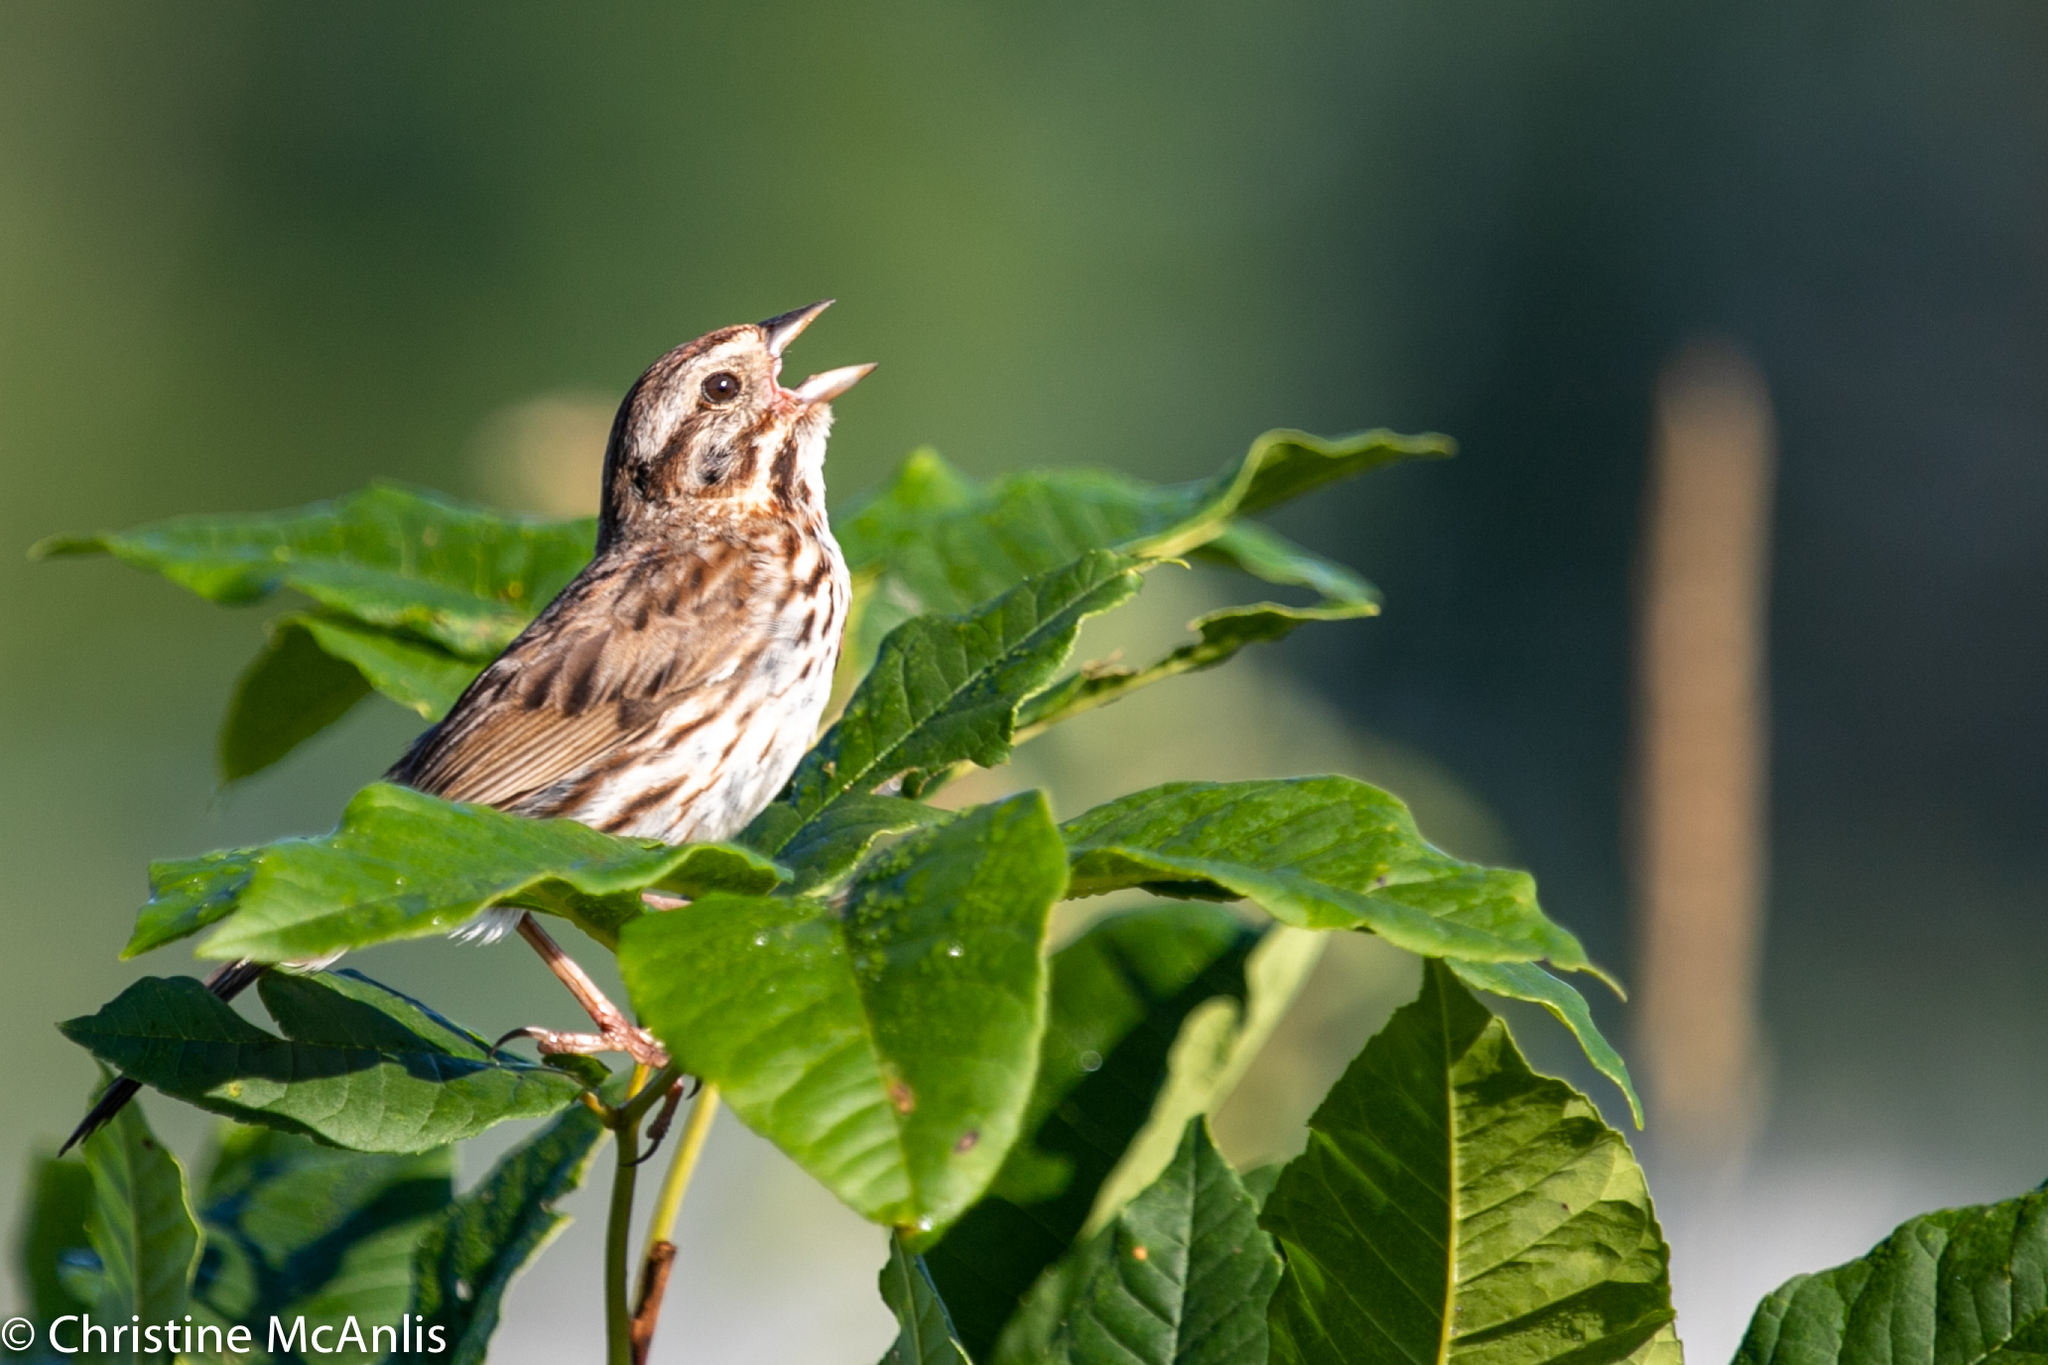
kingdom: Animalia
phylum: Chordata
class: Aves
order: Passeriformes
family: Passerellidae
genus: Melospiza
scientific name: Melospiza melodia
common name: Song sparrow
